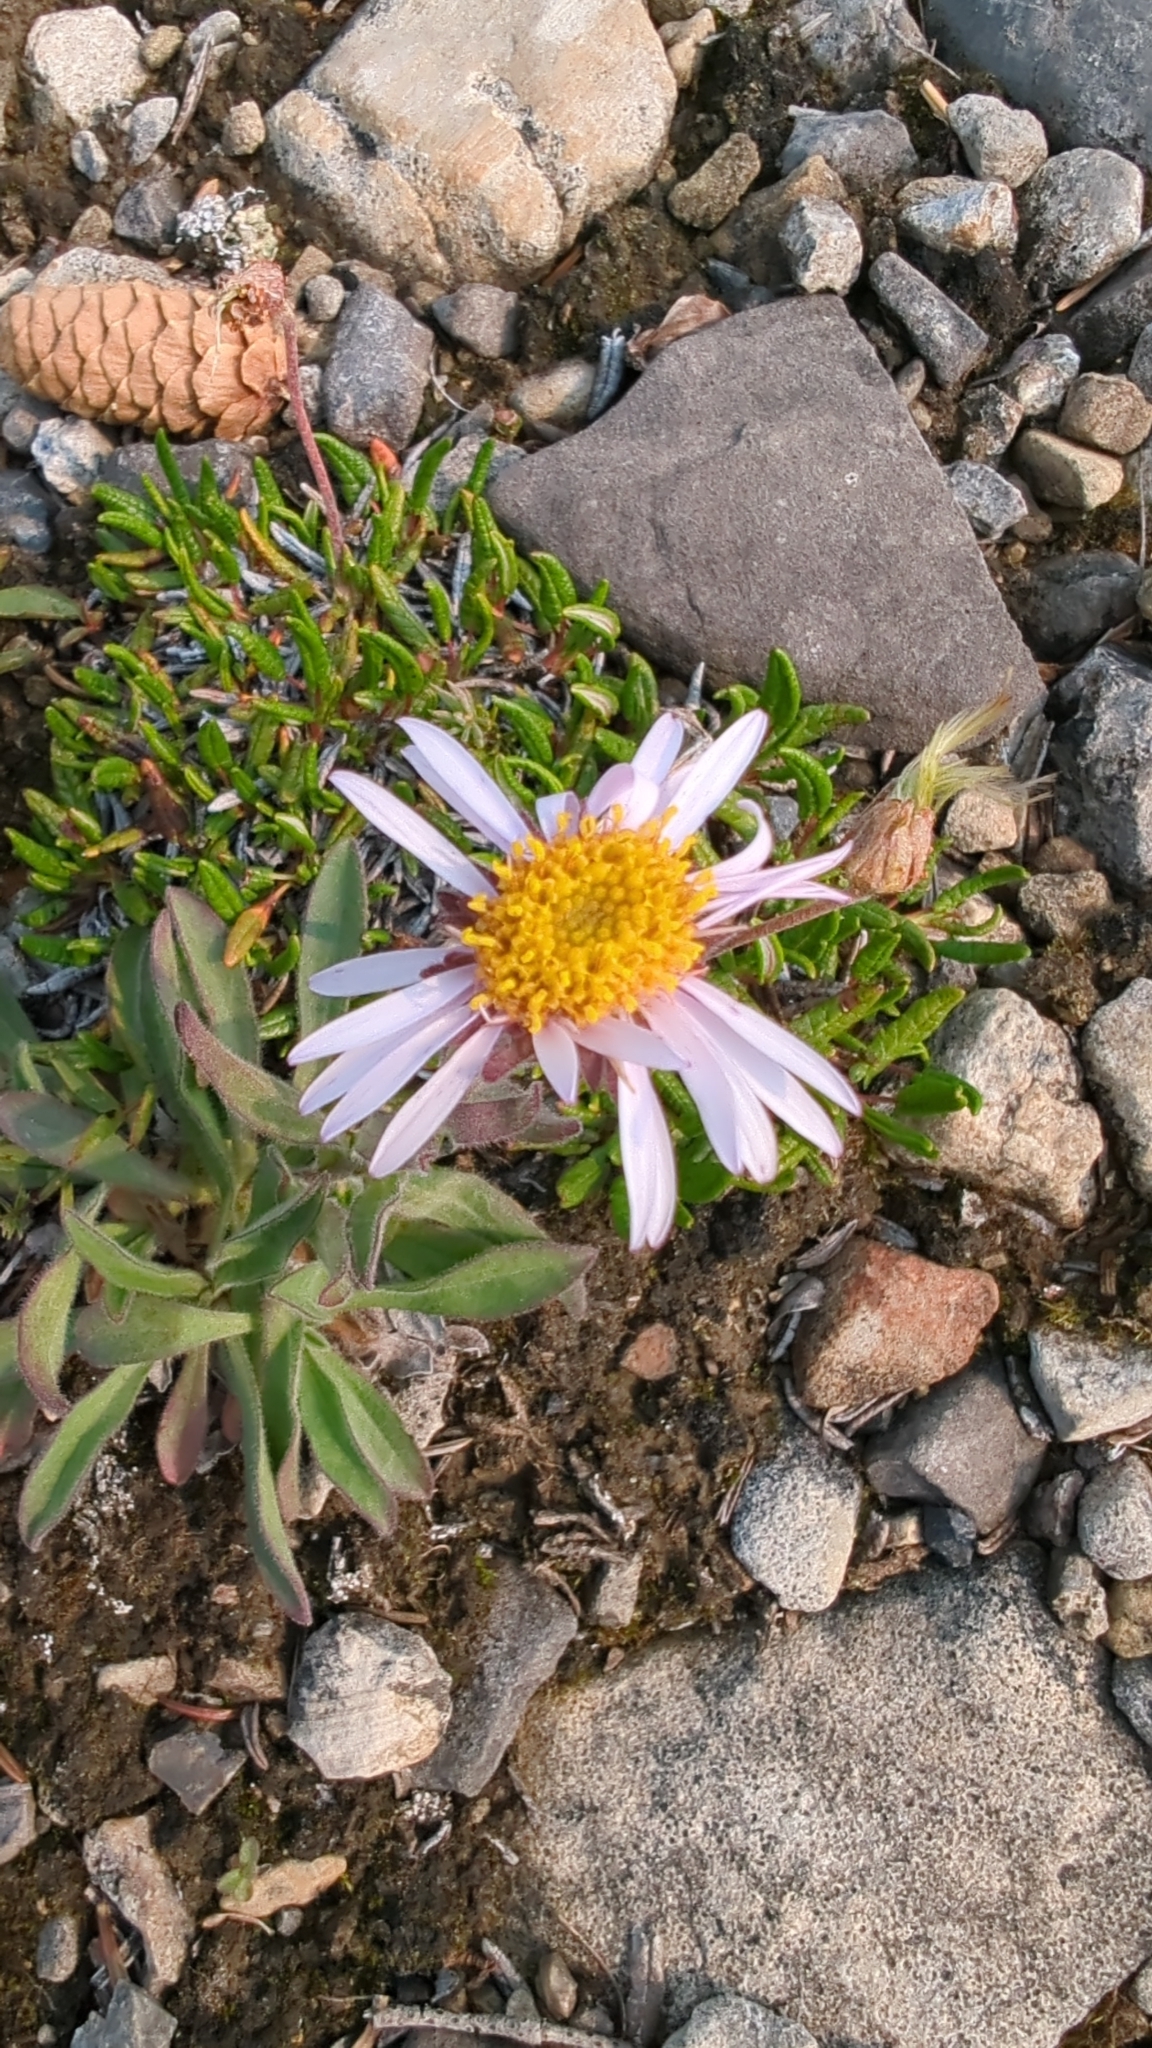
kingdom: Plantae
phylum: Tracheophyta
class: Magnoliopsida
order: Asterales
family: Asteraceae
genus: Aster
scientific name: Aster alpinus
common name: Alpine aster
